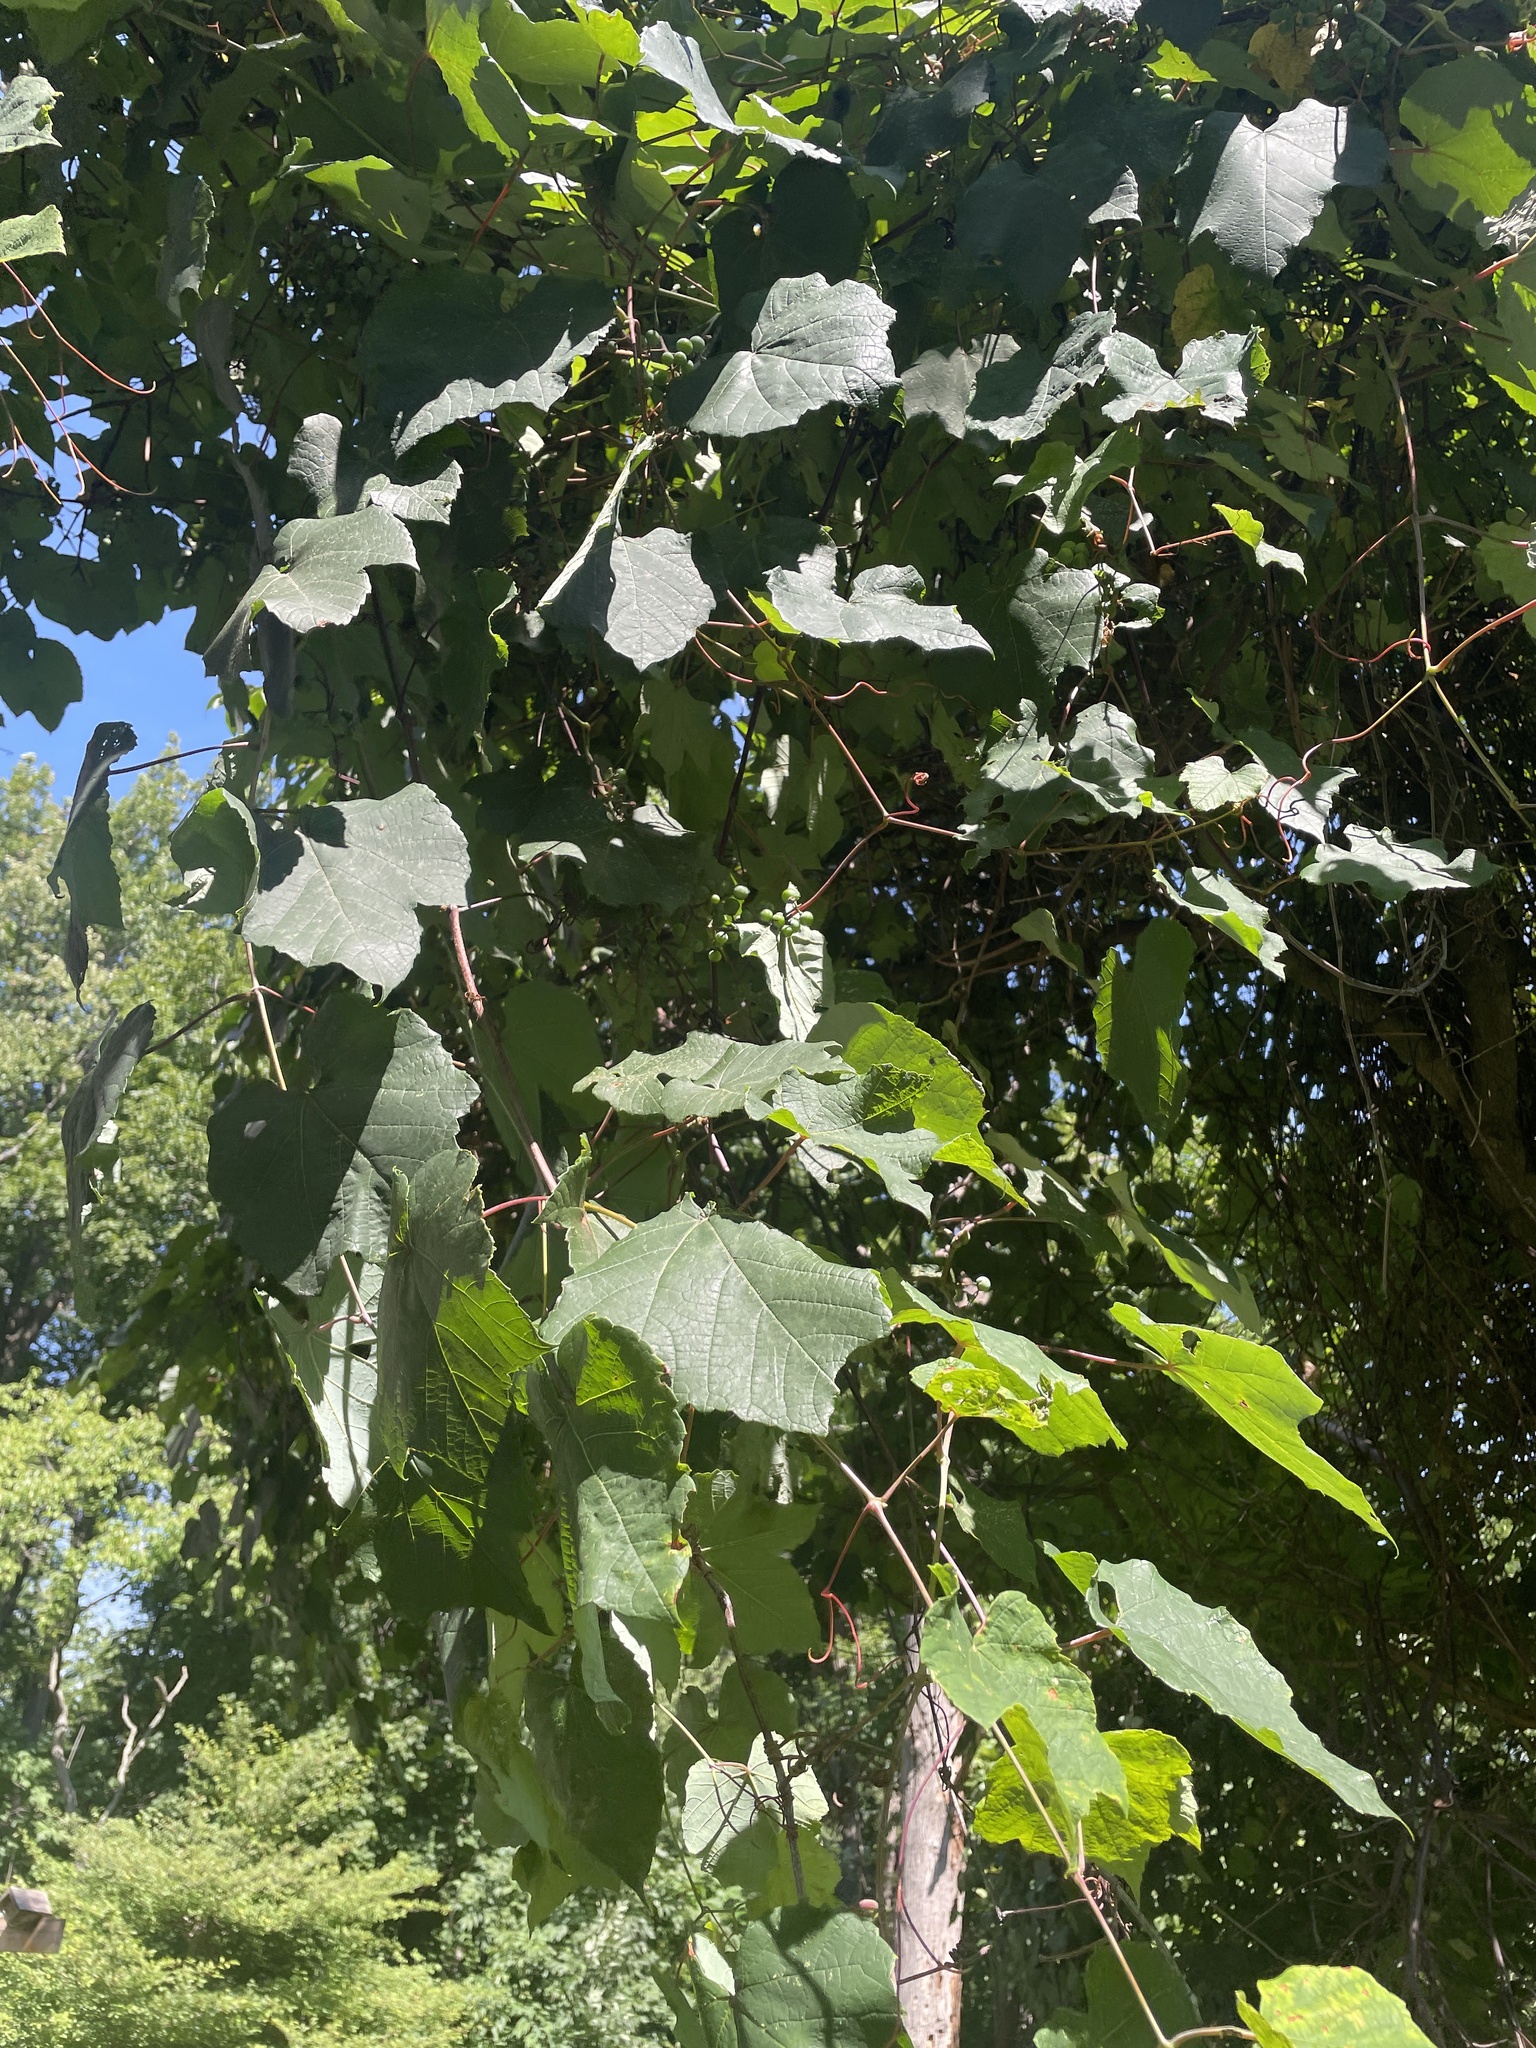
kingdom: Plantae
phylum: Tracheophyta
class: Magnoliopsida
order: Vitales
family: Vitaceae
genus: Vitis
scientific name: Vitis aestivalis
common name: Pigeon grape
